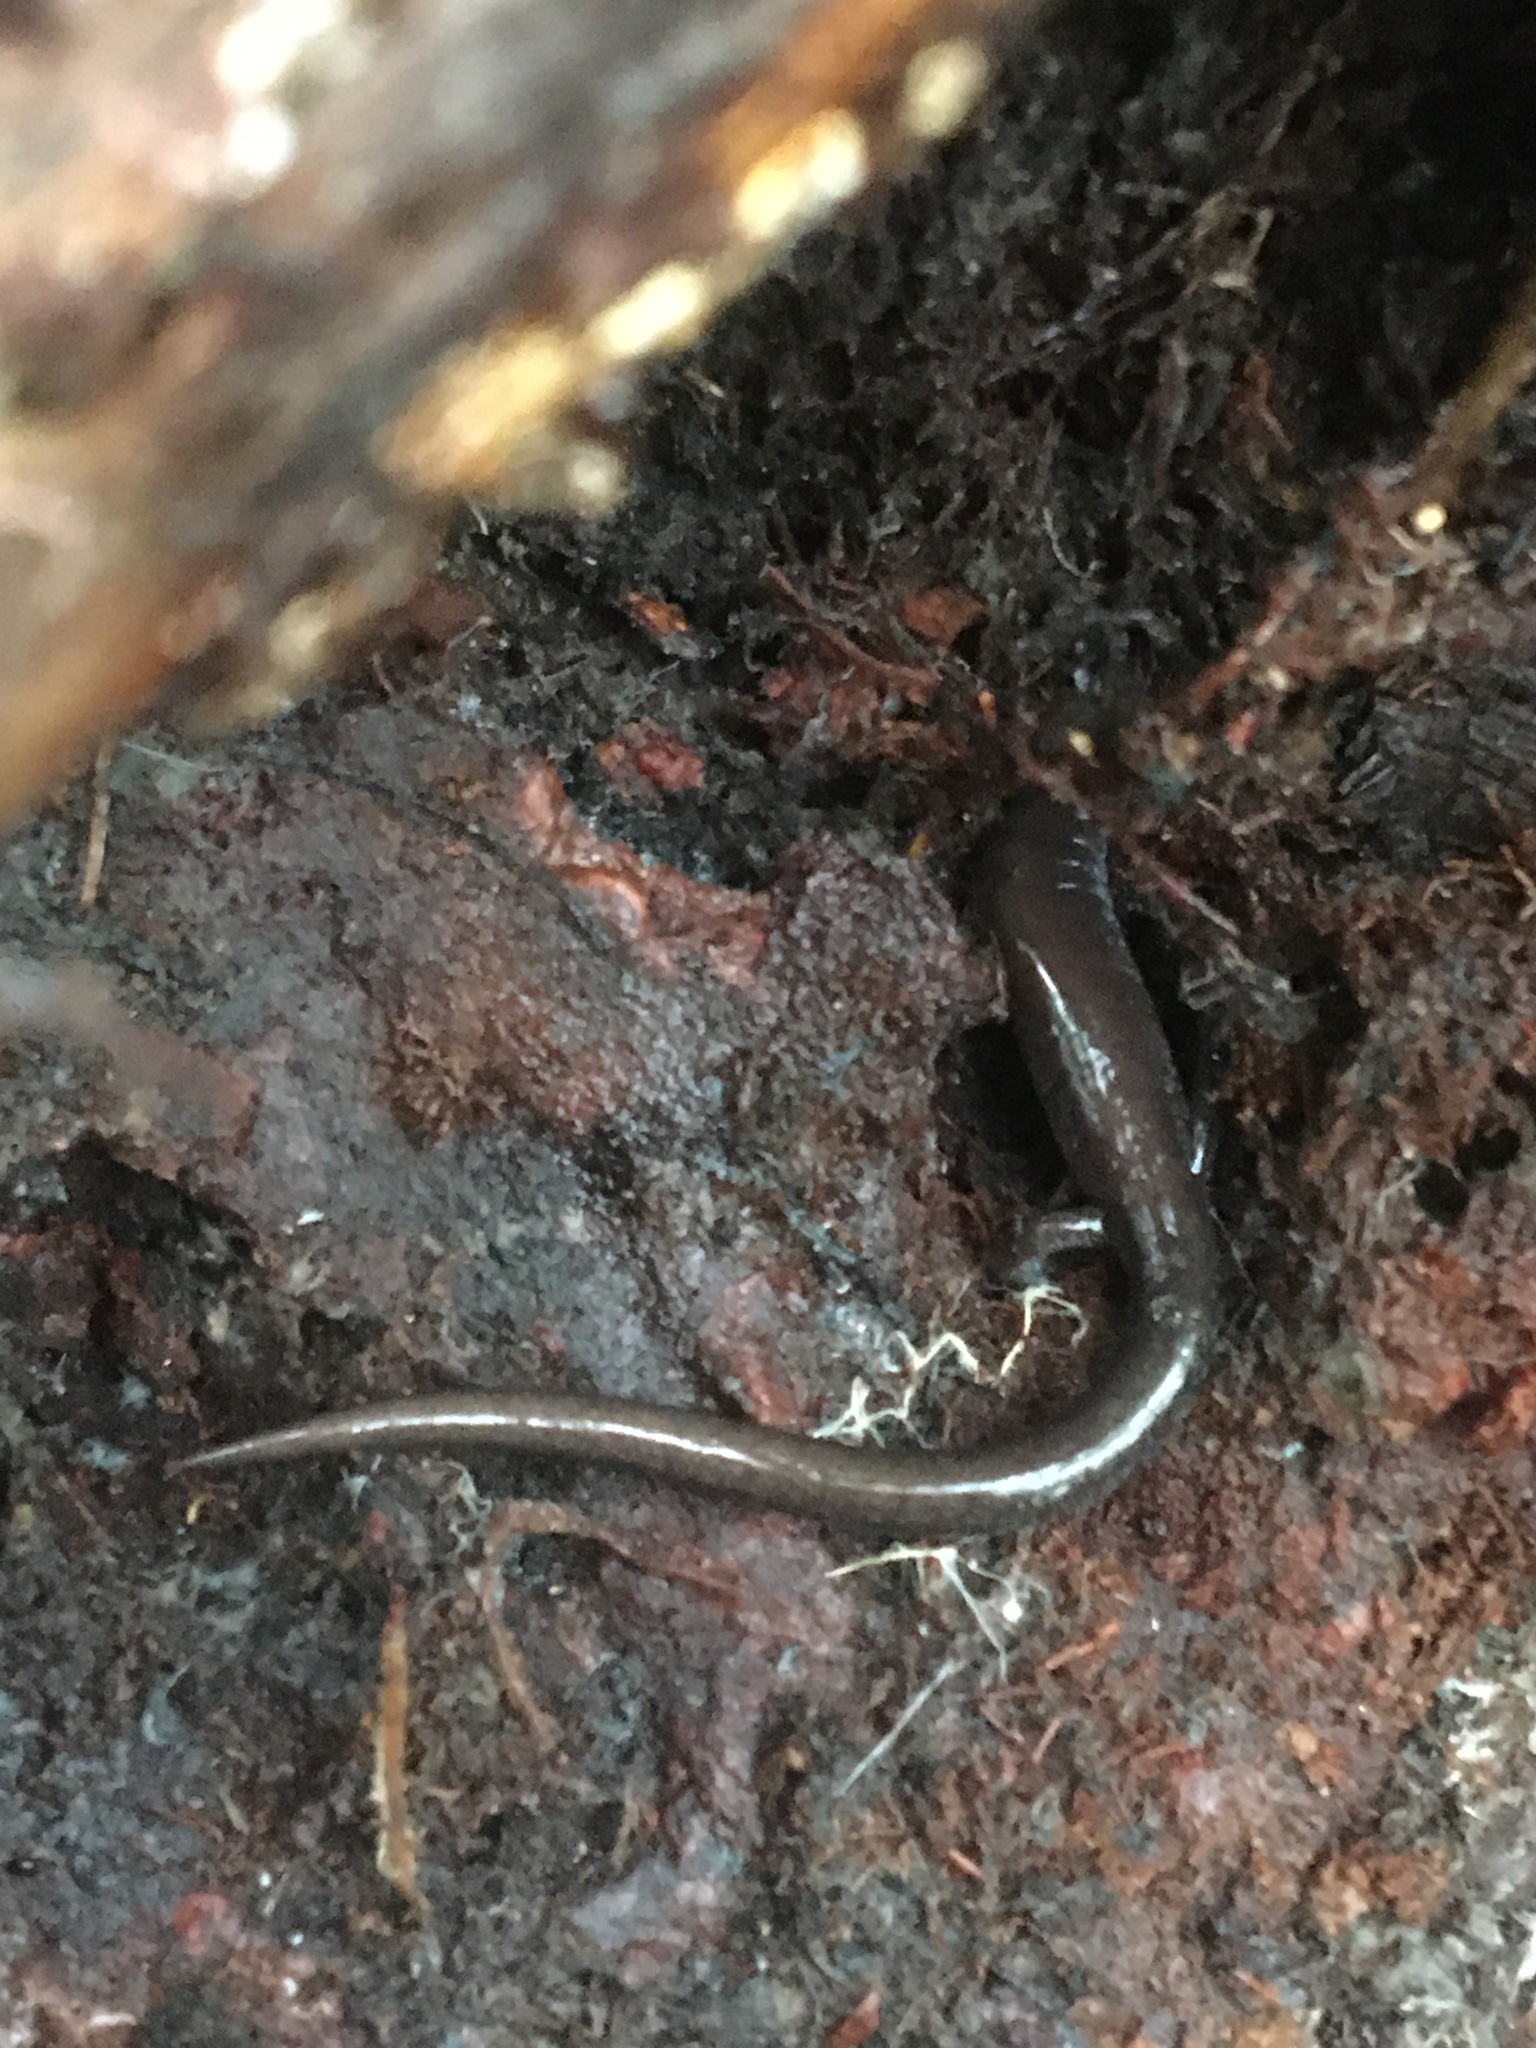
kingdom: Animalia
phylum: Chordata
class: Amphibia
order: Caudata
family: Plethodontidae
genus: Plethodon
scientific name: Plethodon cinereus
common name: Redback salamander
